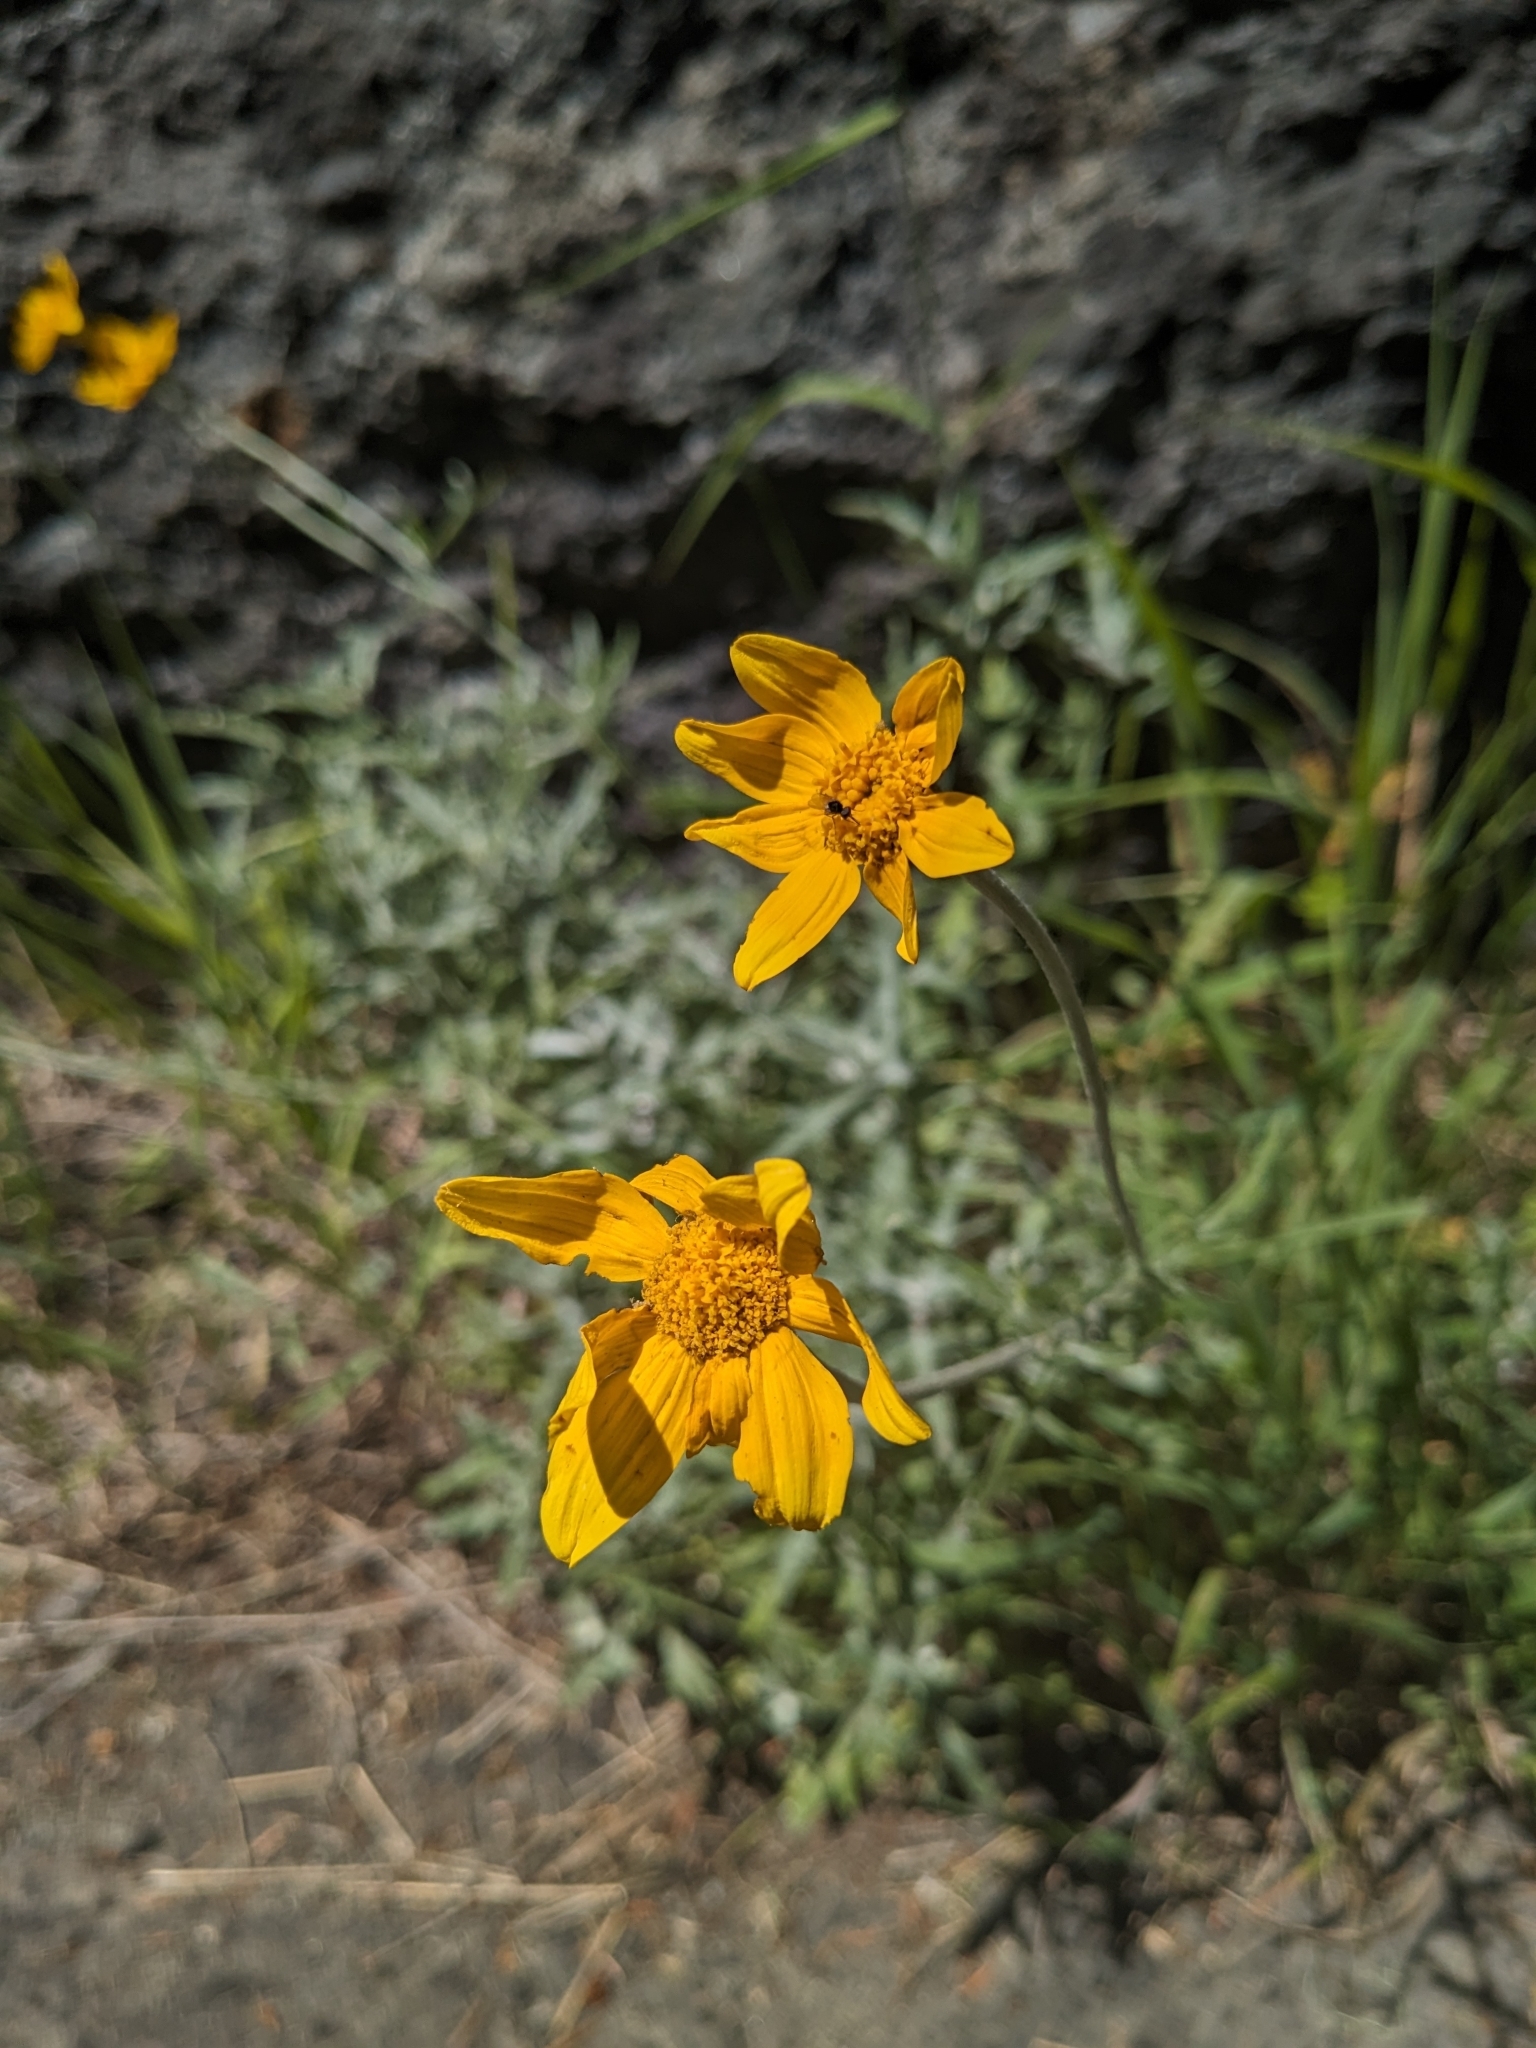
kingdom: Plantae
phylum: Tracheophyta
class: Magnoliopsida
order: Asterales
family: Asteraceae
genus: Eriophyllum
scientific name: Eriophyllum lanatum
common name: Common woolly-sunflower
